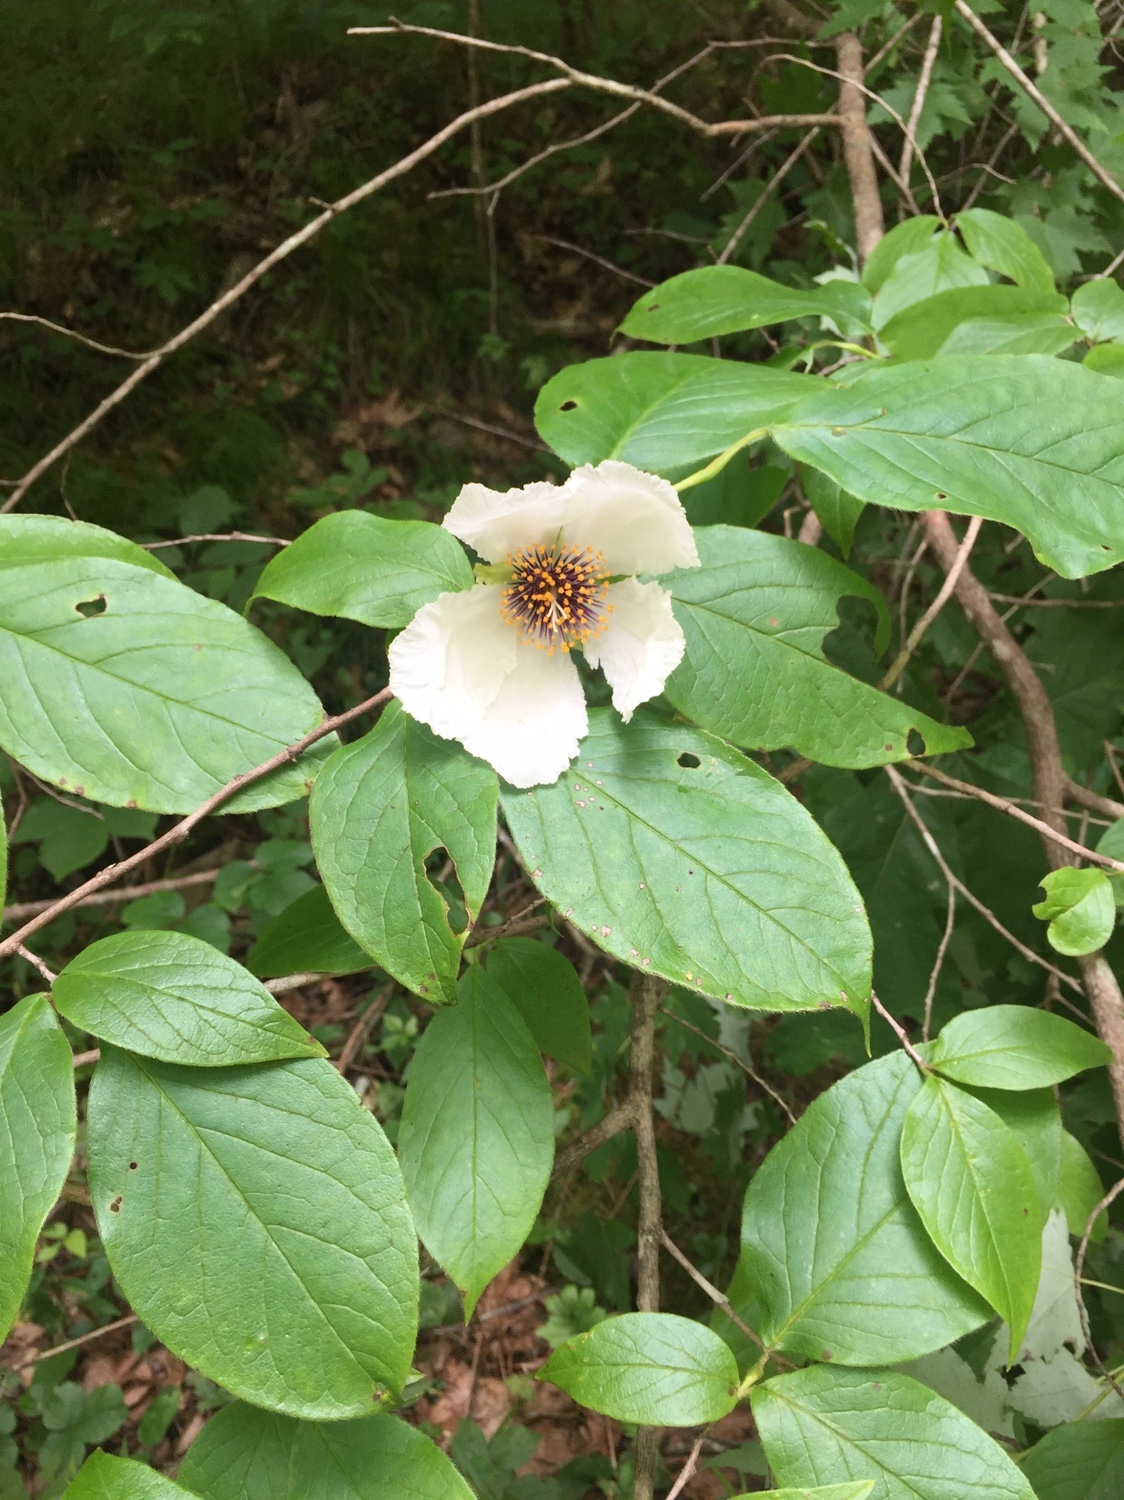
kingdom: Plantae
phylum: Tracheophyta
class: Magnoliopsida
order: Ericales
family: Theaceae
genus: Stewartia
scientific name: Stewartia ovata
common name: Mountain camellia
